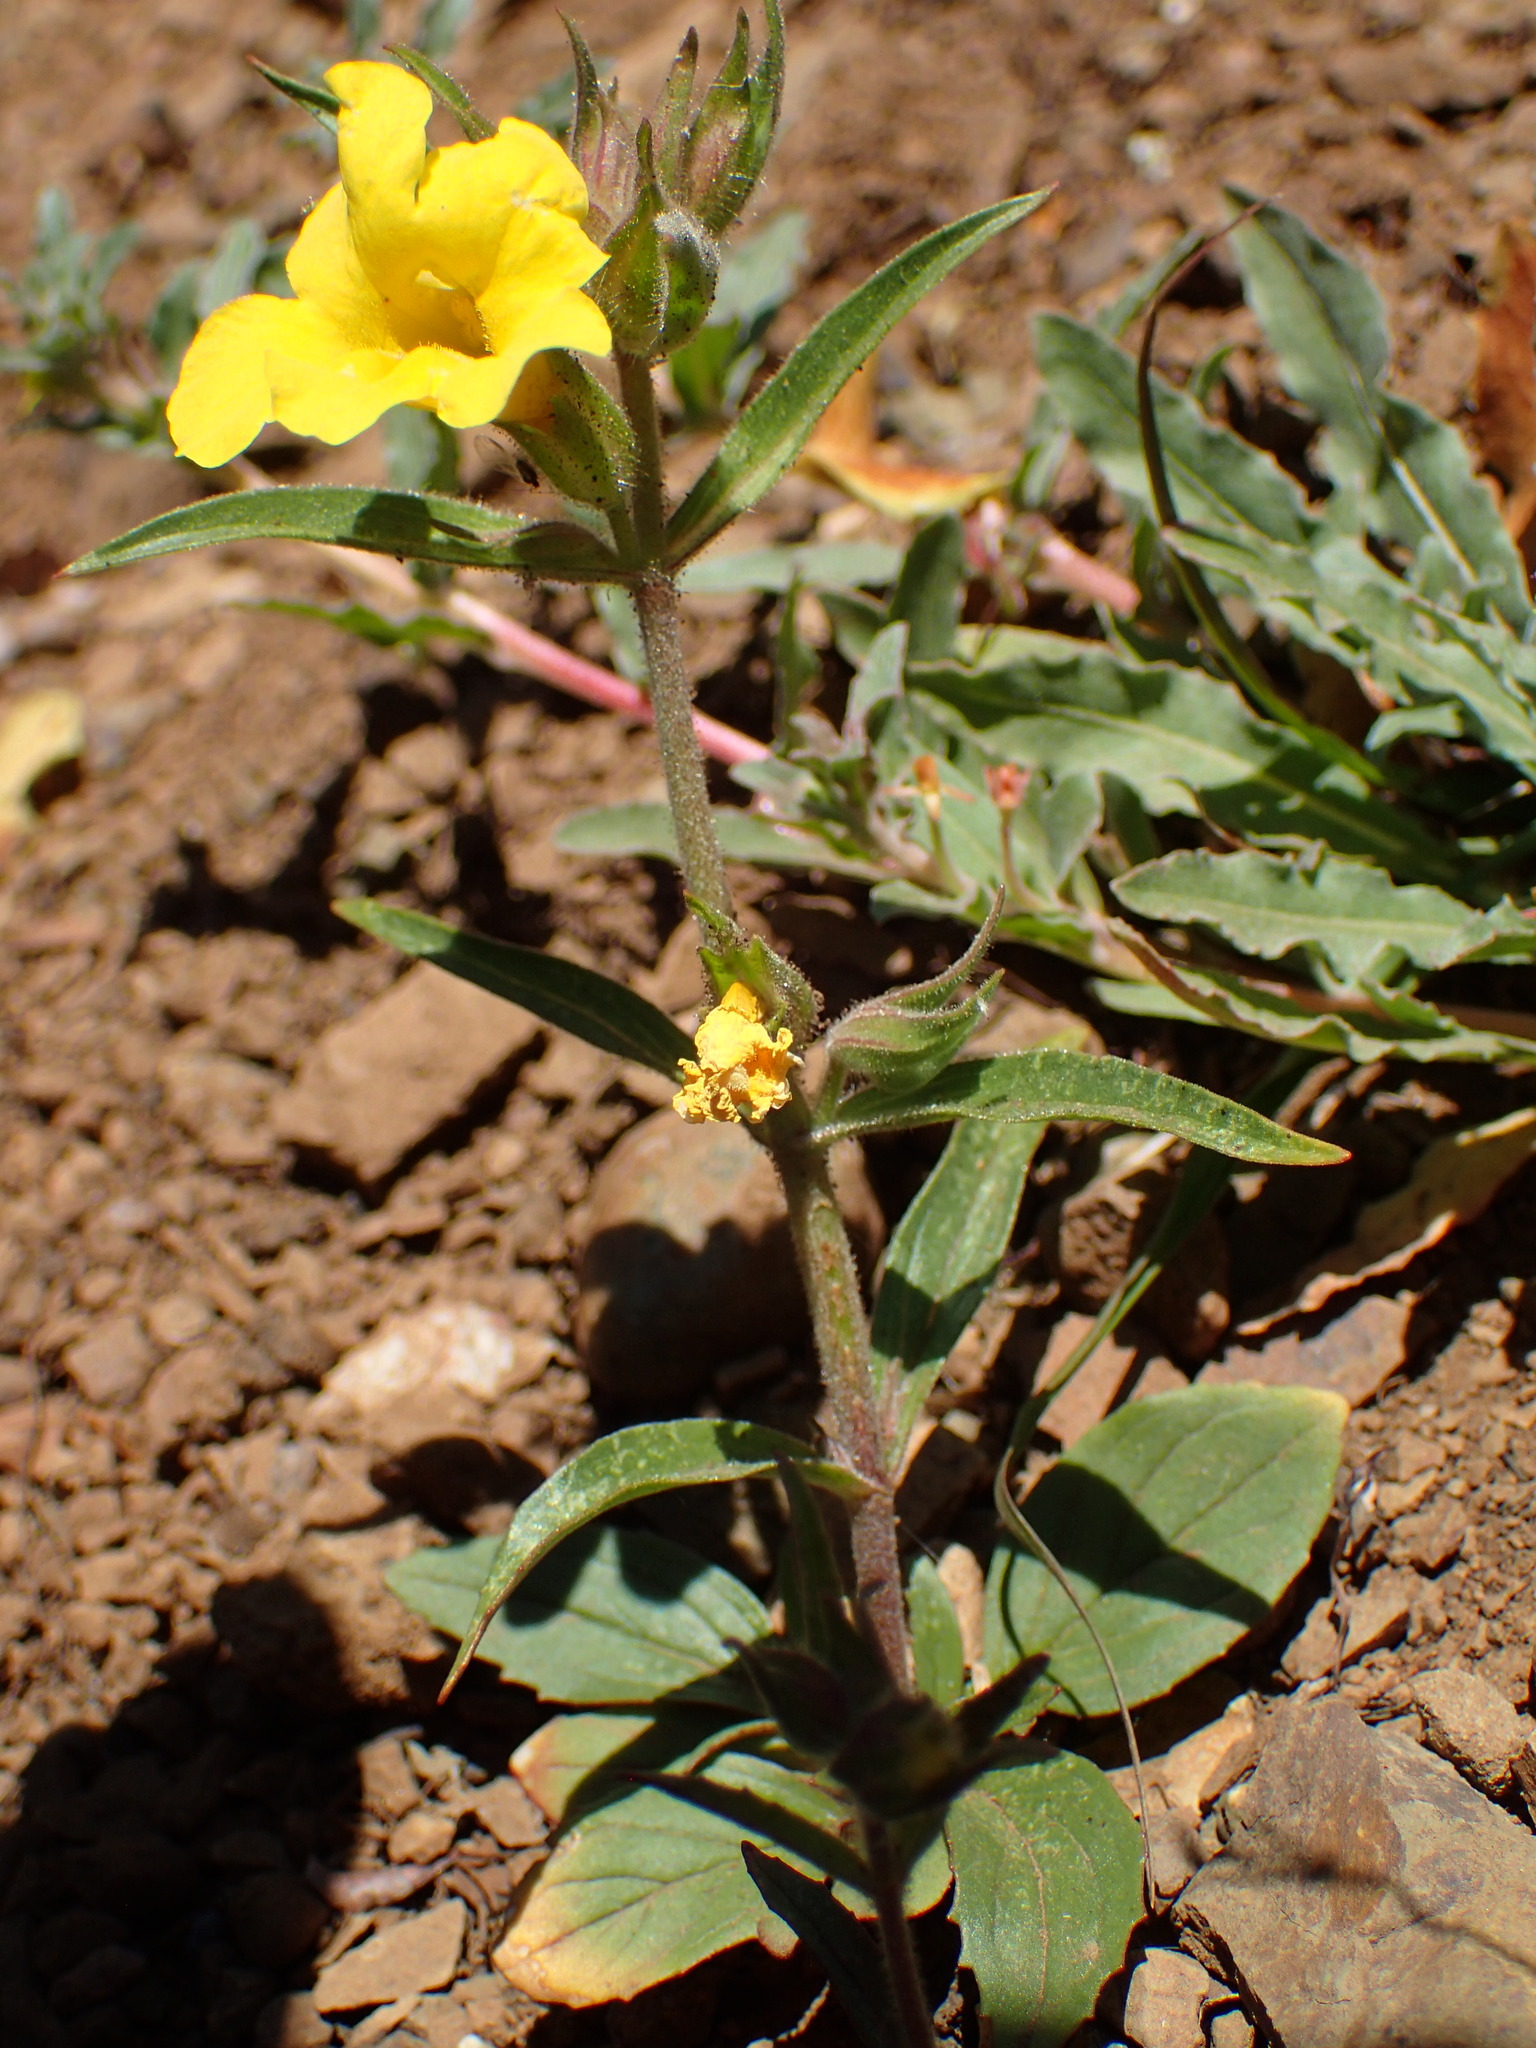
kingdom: Plantae
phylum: Tracheophyta
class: Magnoliopsida
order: Lamiales
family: Phrymaceae
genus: Diplacus
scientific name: Diplacus brevipes
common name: Wide-throat yellow monkey-flower
